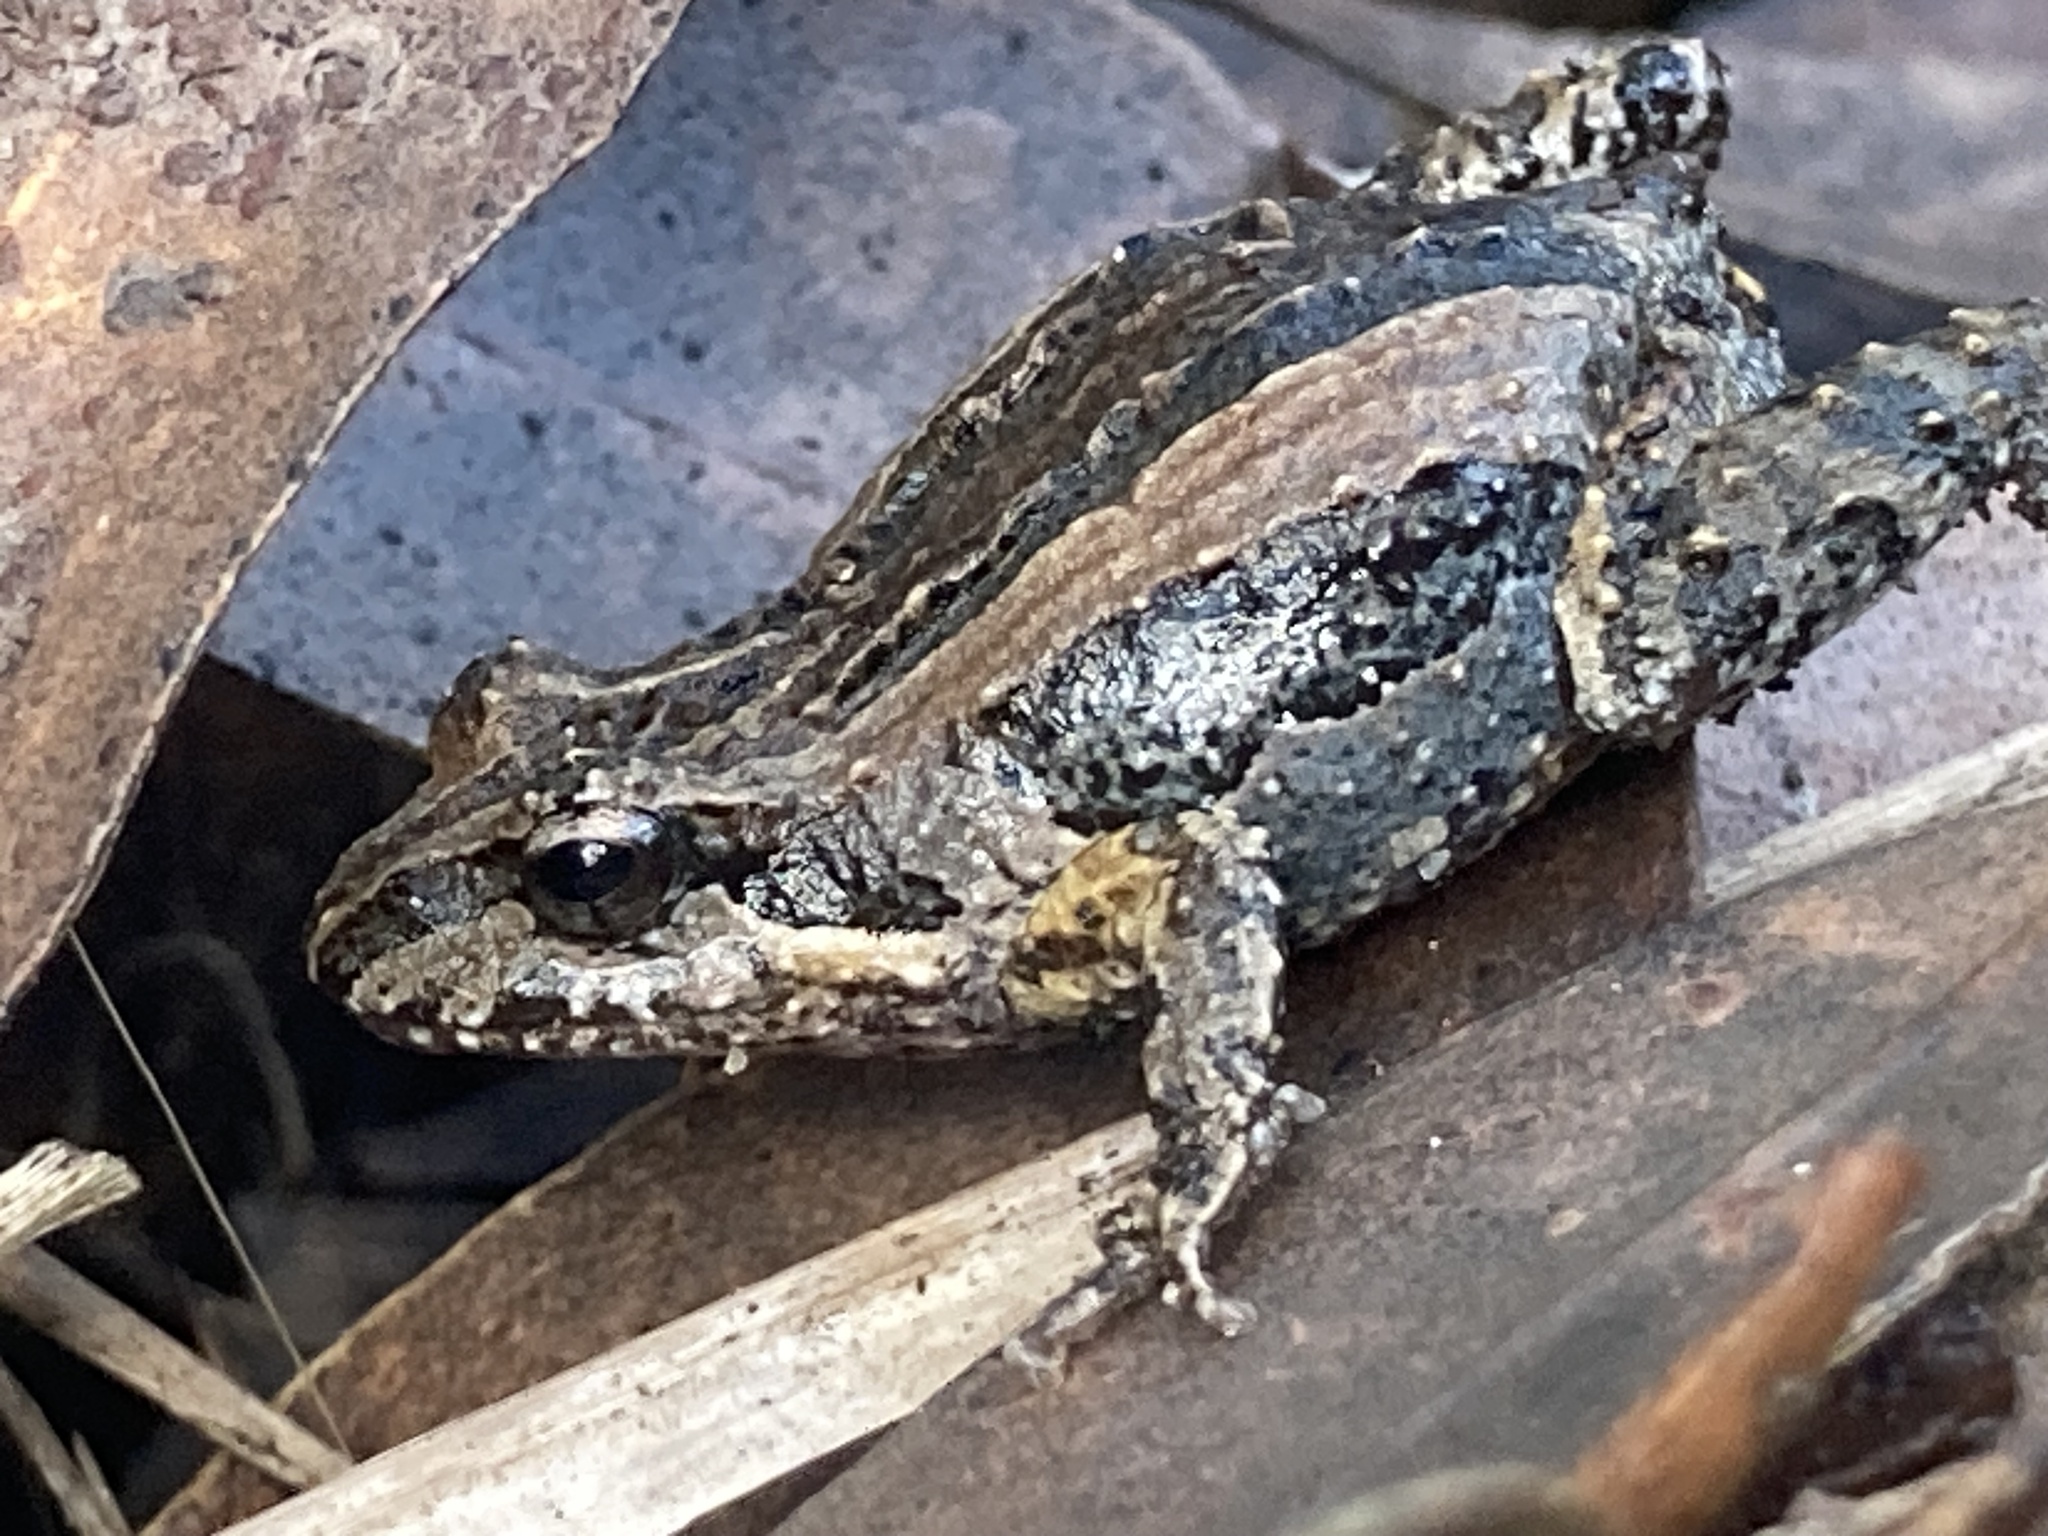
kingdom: Animalia
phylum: Chordata
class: Amphibia
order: Anura
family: Myobatrachidae
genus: Crinia
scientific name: Crinia signifera
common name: Brown froglet
